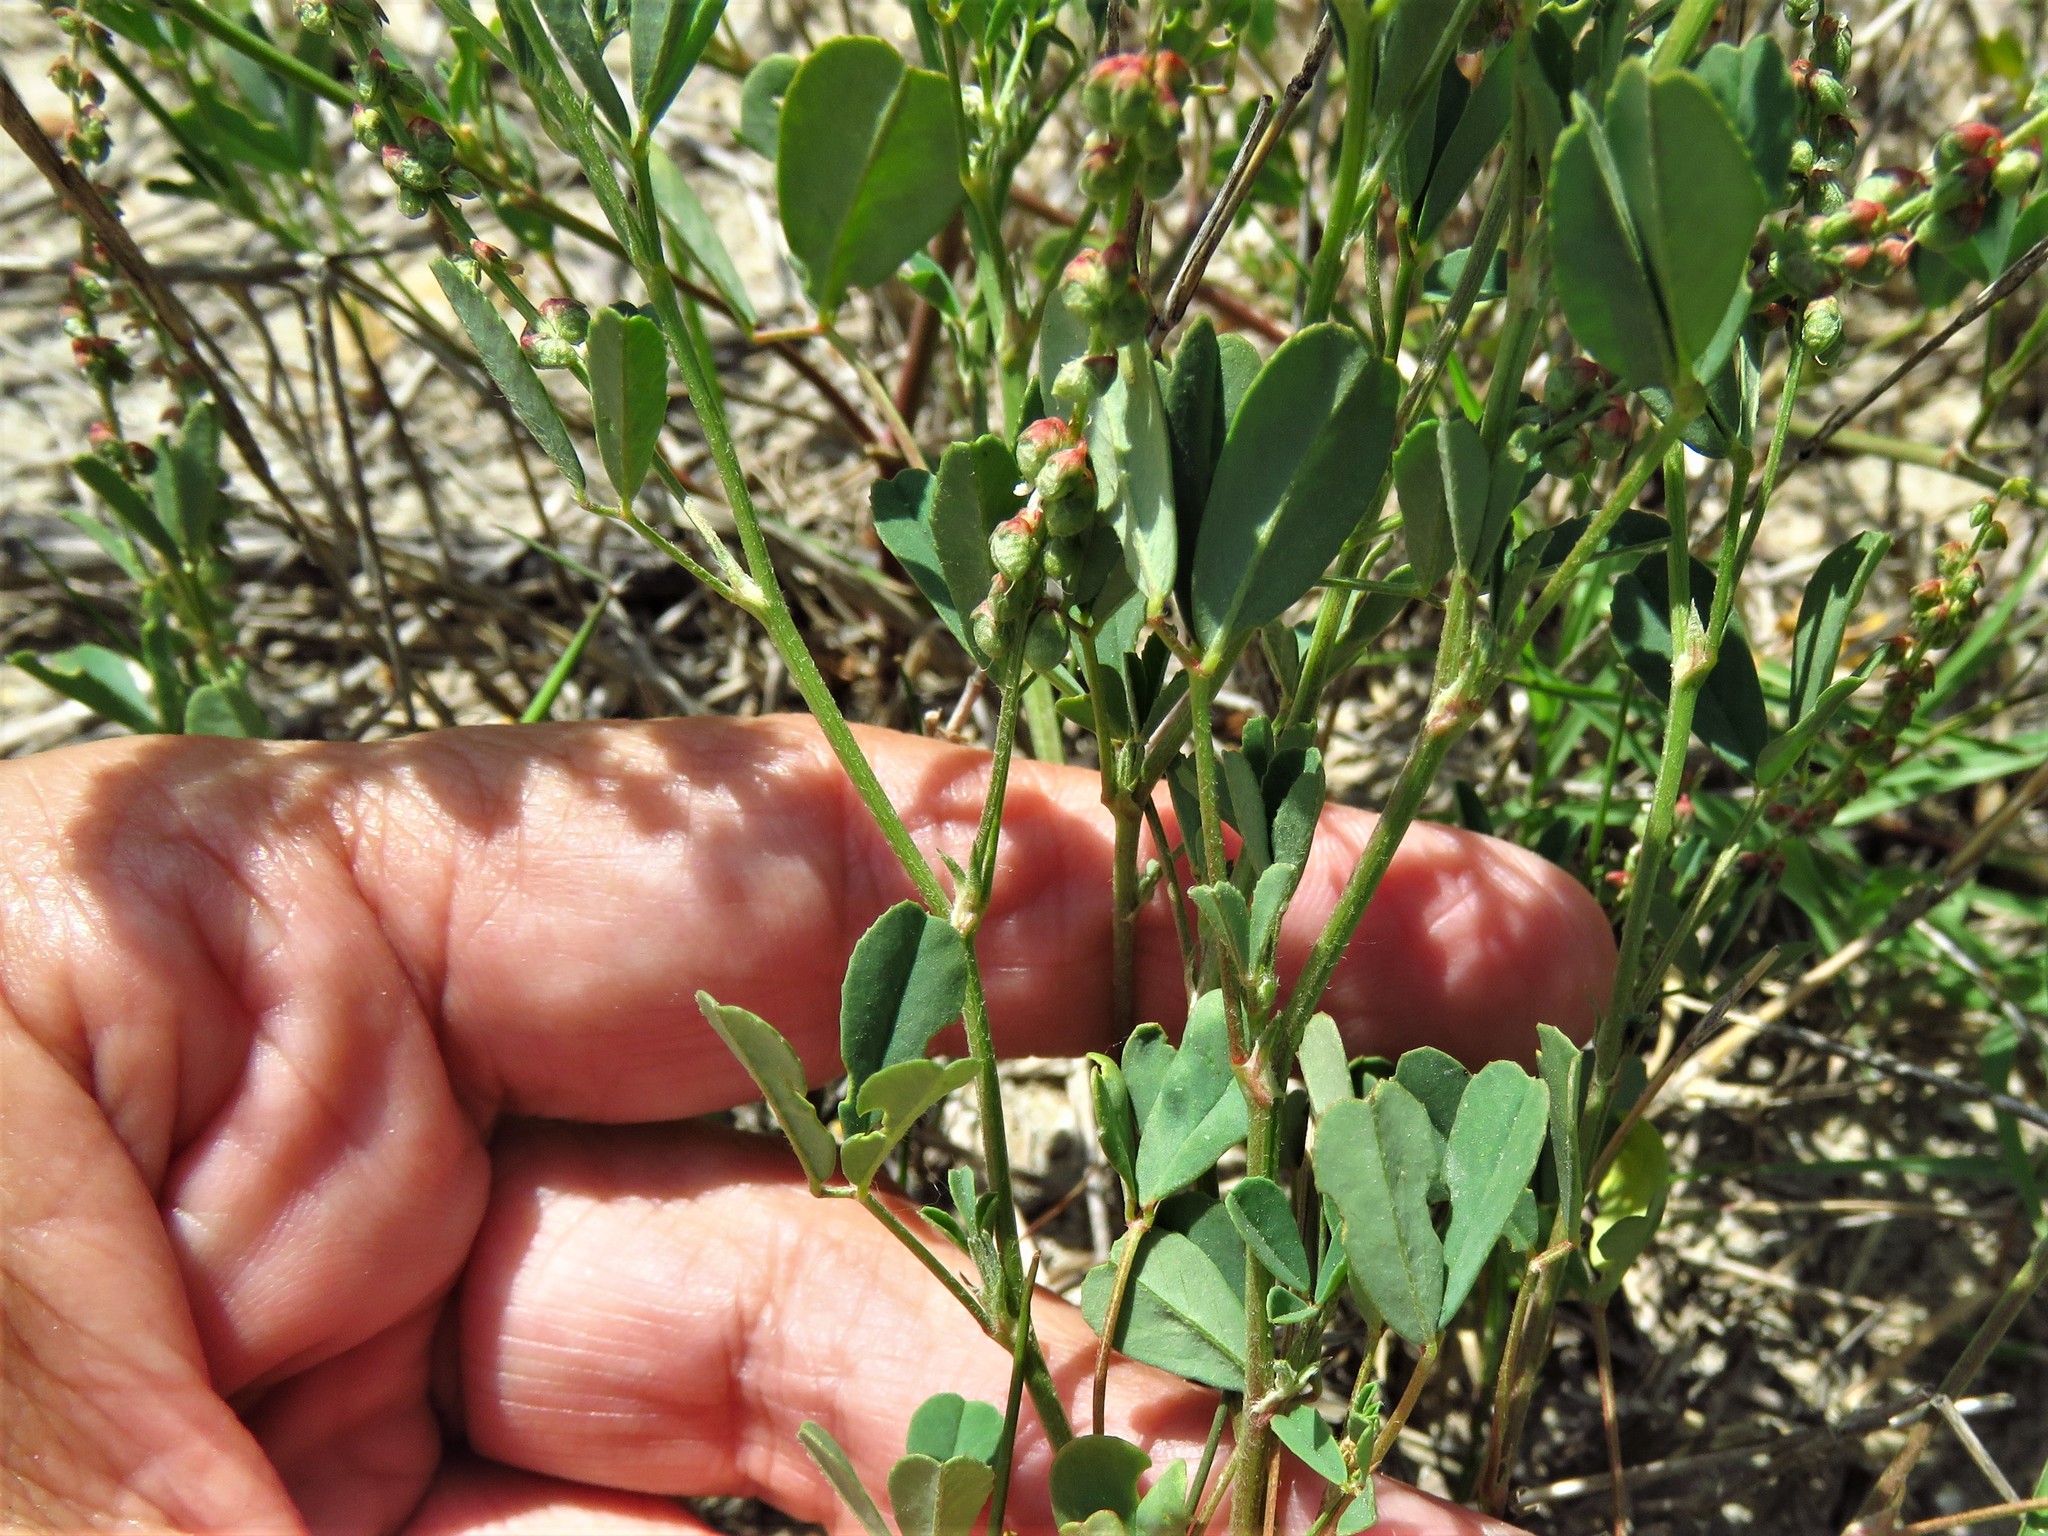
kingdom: Plantae
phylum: Tracheophyta
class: Magnoliopsida
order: Fabales
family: Fabaceae
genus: Melilotus
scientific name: Melilotus indicus
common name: Small melilot
